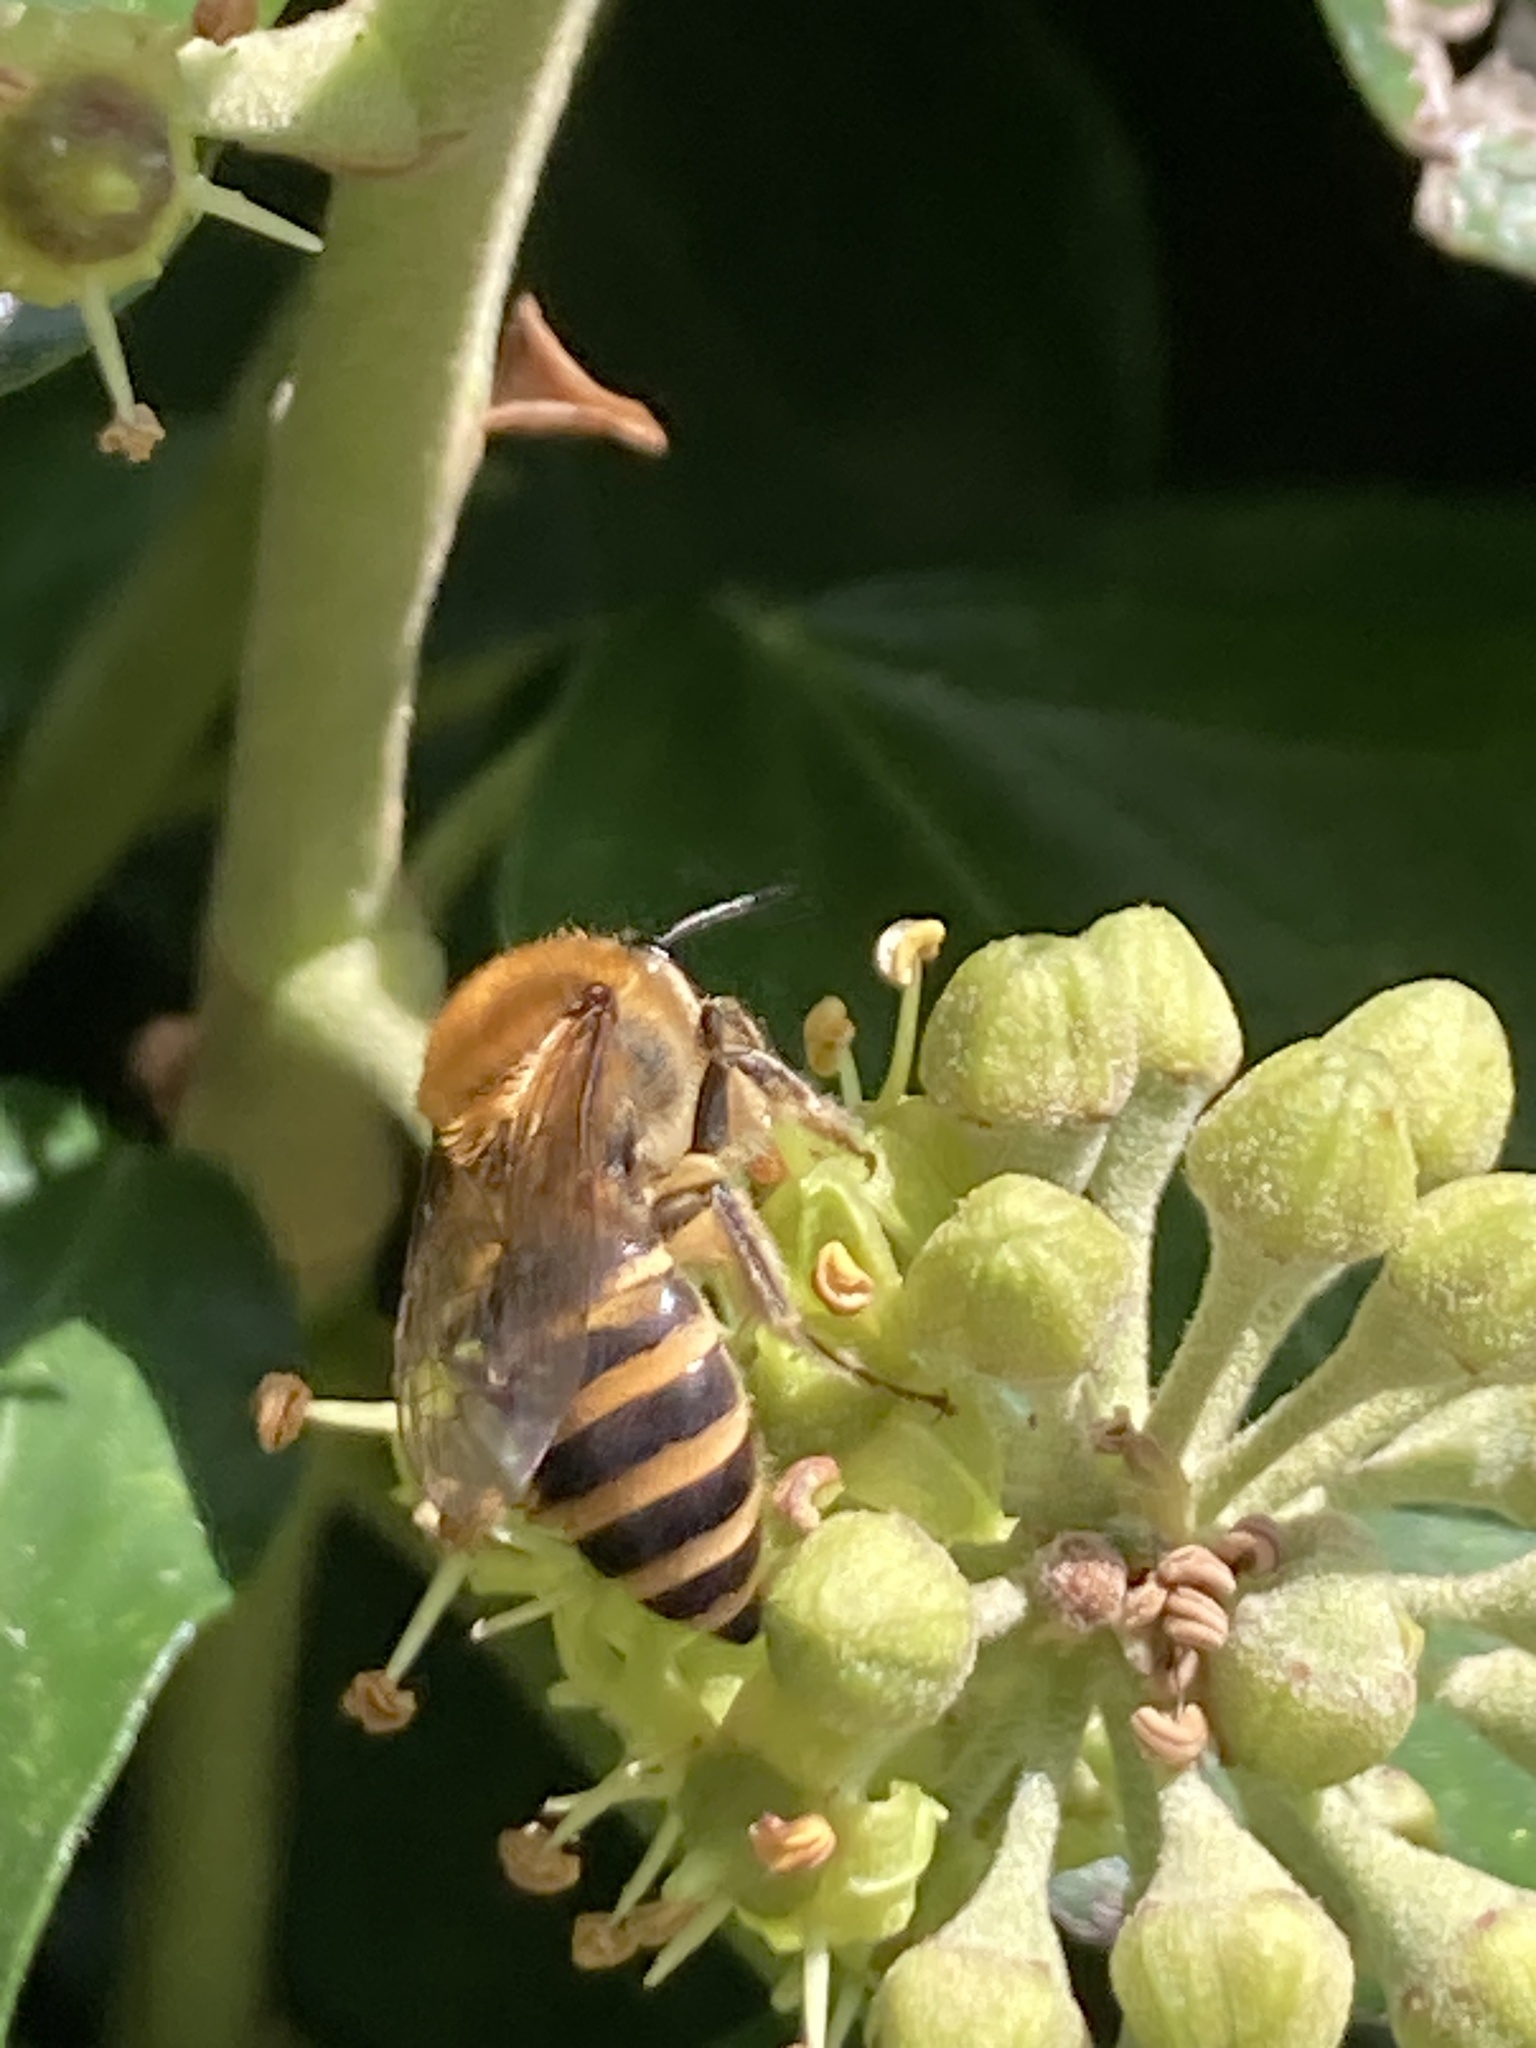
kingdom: Animalia
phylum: Arthropoda
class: Insecta
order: Hymenoptera
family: Colletidae
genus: Colletes
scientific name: Colletes hederae
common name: Ivy bee
